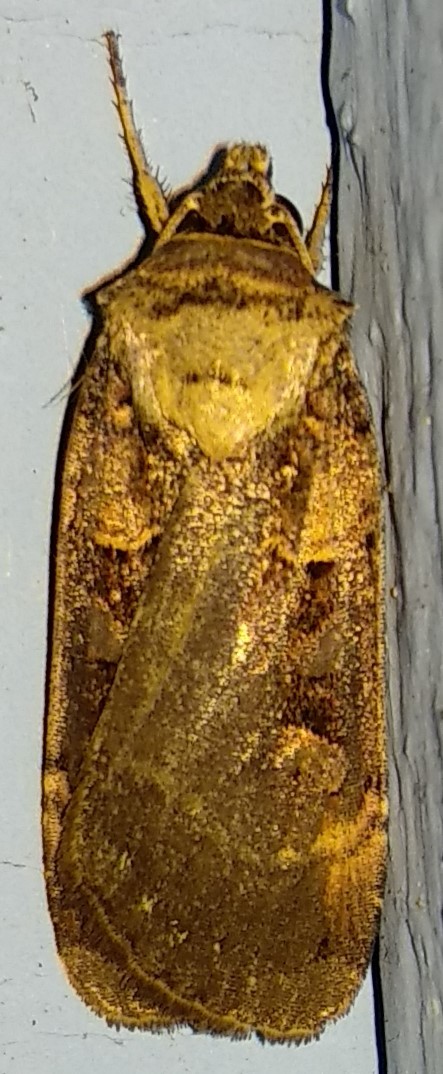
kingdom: Animalia
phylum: Arthropoda
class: Insecta
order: Lepidoptera
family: Noctuidae
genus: Pseudohermonassa
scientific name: Pseudohermonassa bicarnea
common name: Pink spotted dart
